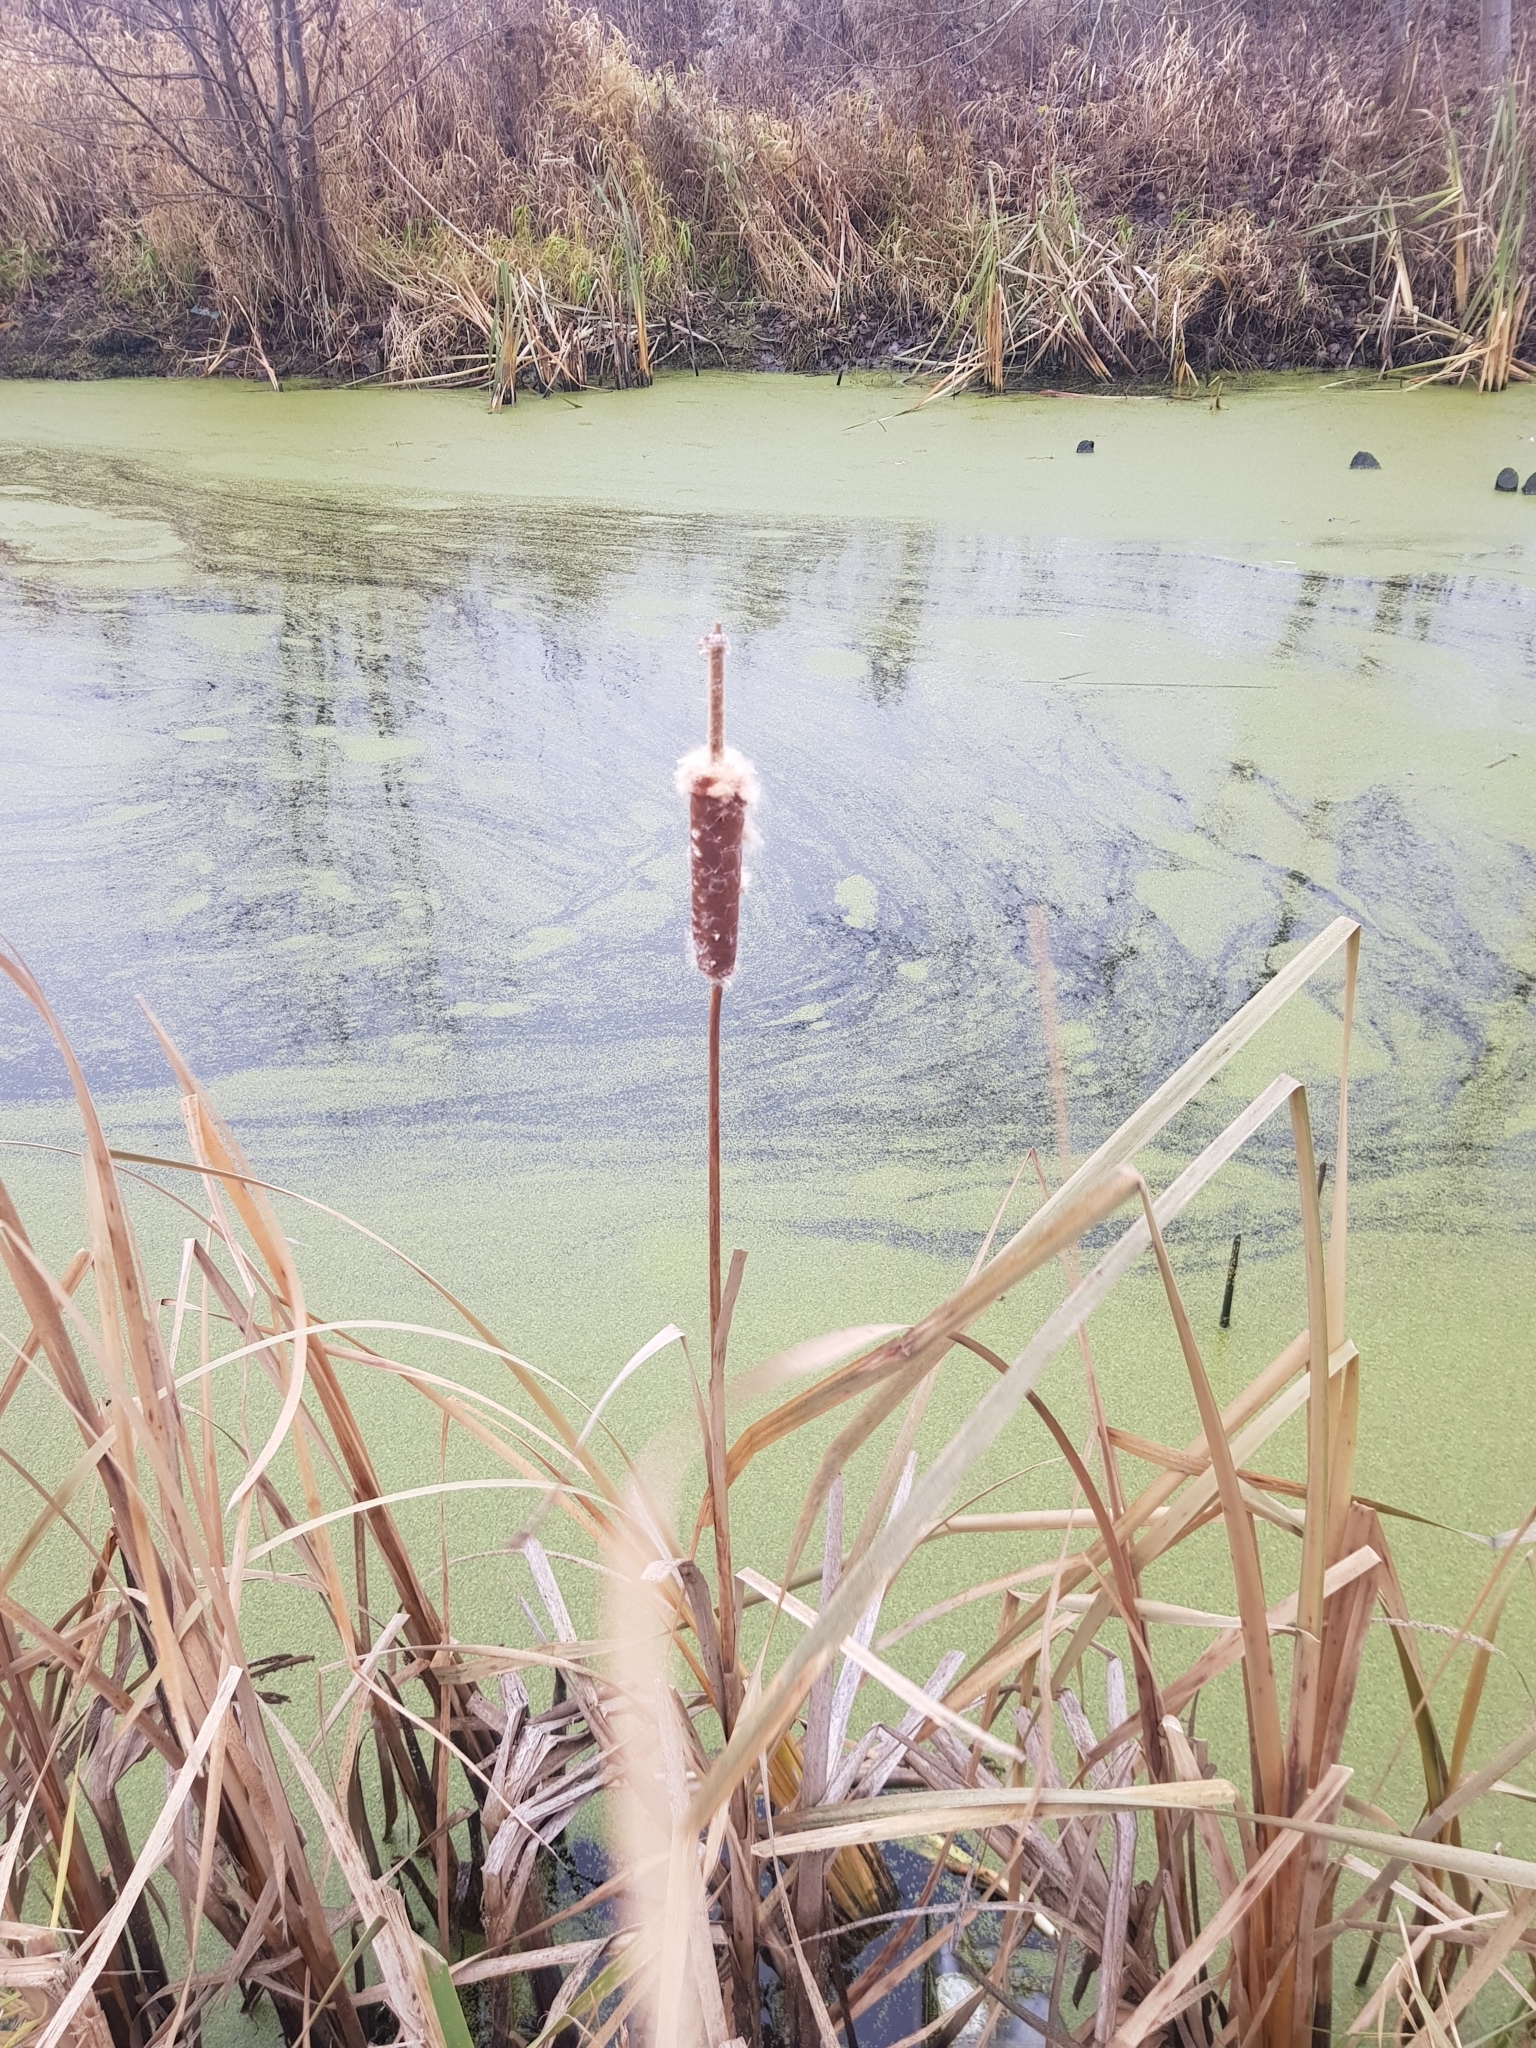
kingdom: Plantae
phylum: Tracheophyta
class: Liliopsida
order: Poales
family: Typhaceae
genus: Typha
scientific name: Typha latifolia
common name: Broadleaf cattail
